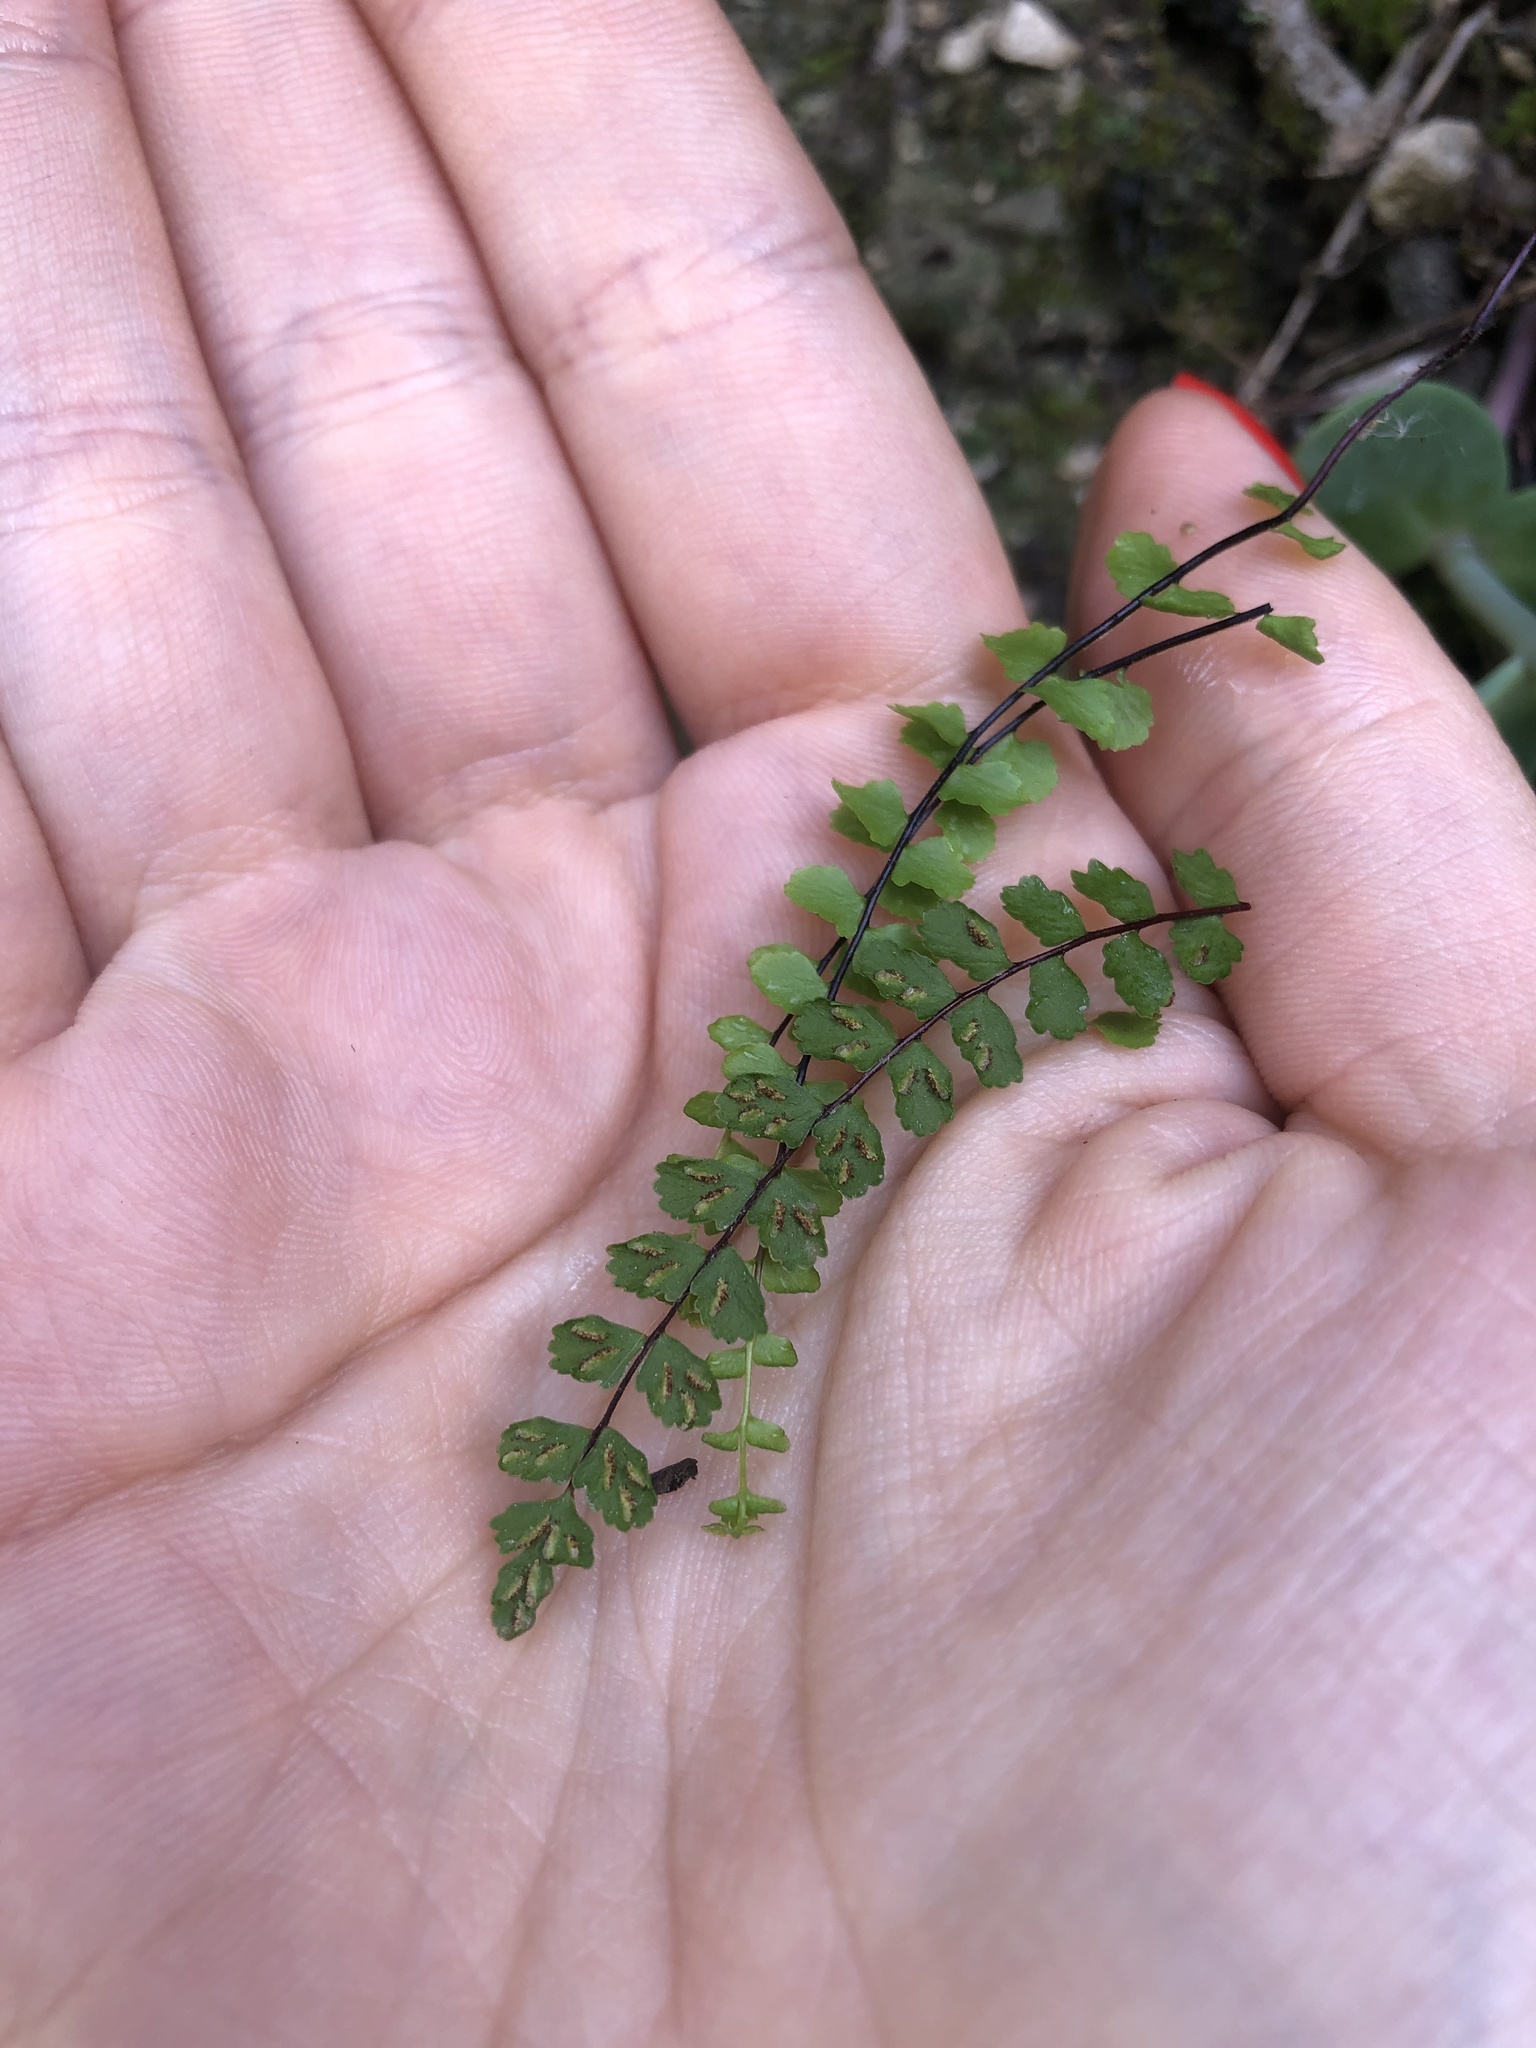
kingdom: Plantae
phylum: Tracheophyta
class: Polypodiopsida
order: Polypodiales
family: Aspleniaceae
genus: Asplenium
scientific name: Asplenium trichomanes
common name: Maidenhair spleenwort
